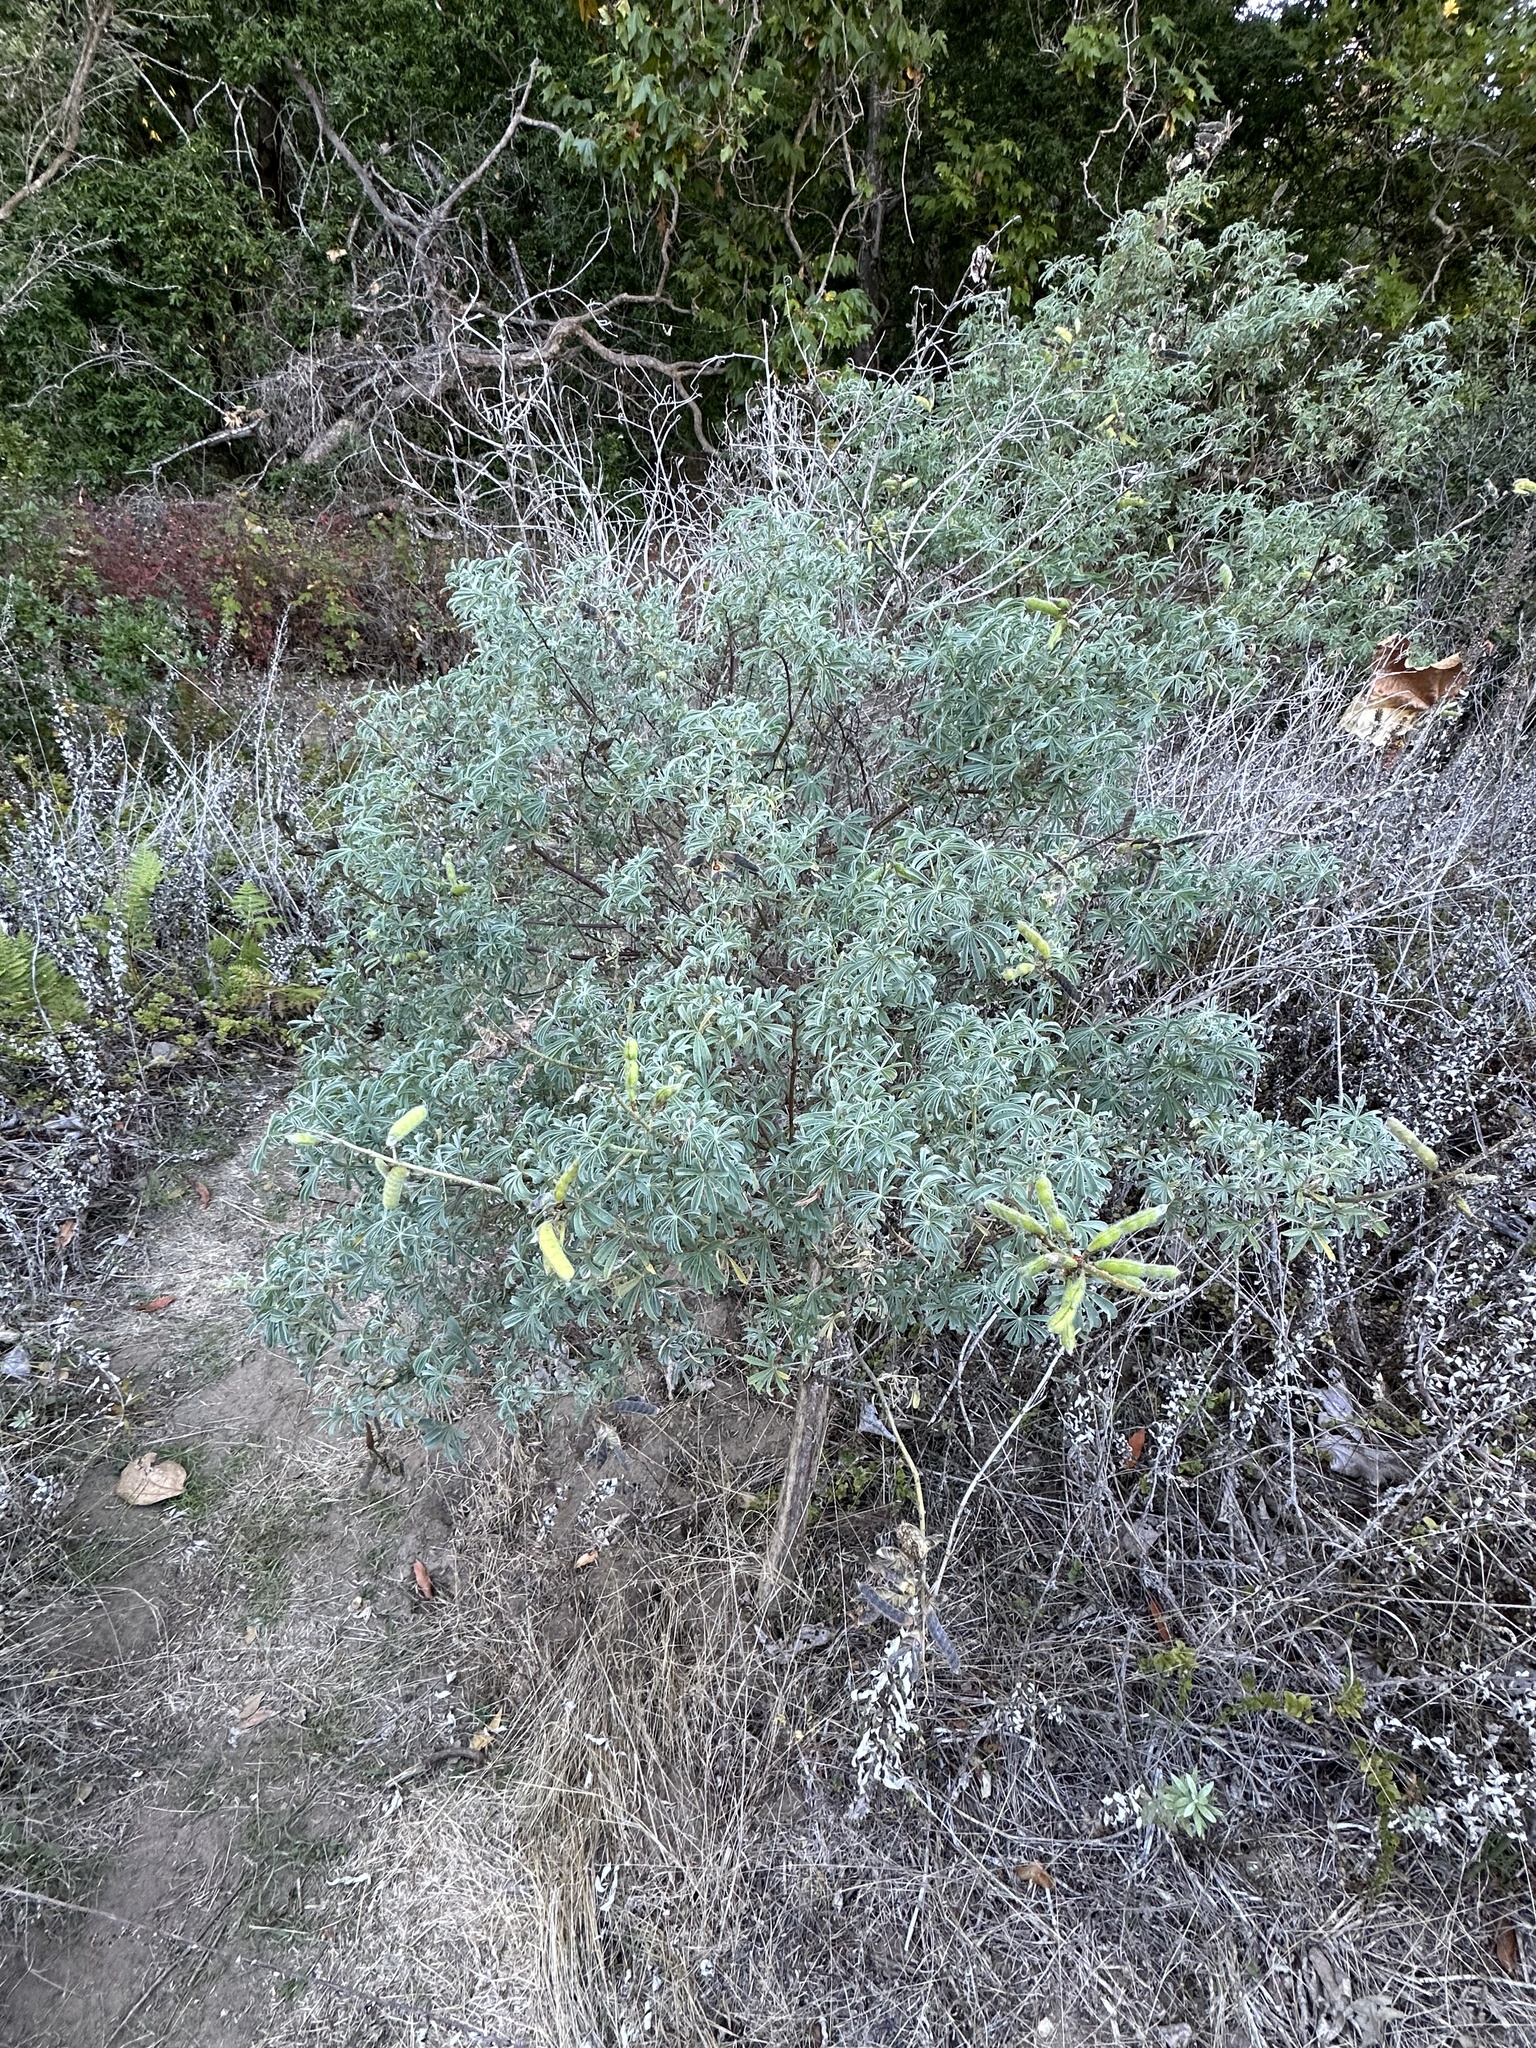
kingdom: Plantae
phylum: Tracheophyta
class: Magnoliopsida
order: Fabales
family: Fabaceae
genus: Lupinus
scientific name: Lupinus arboreus
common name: Yellow bush lupine
